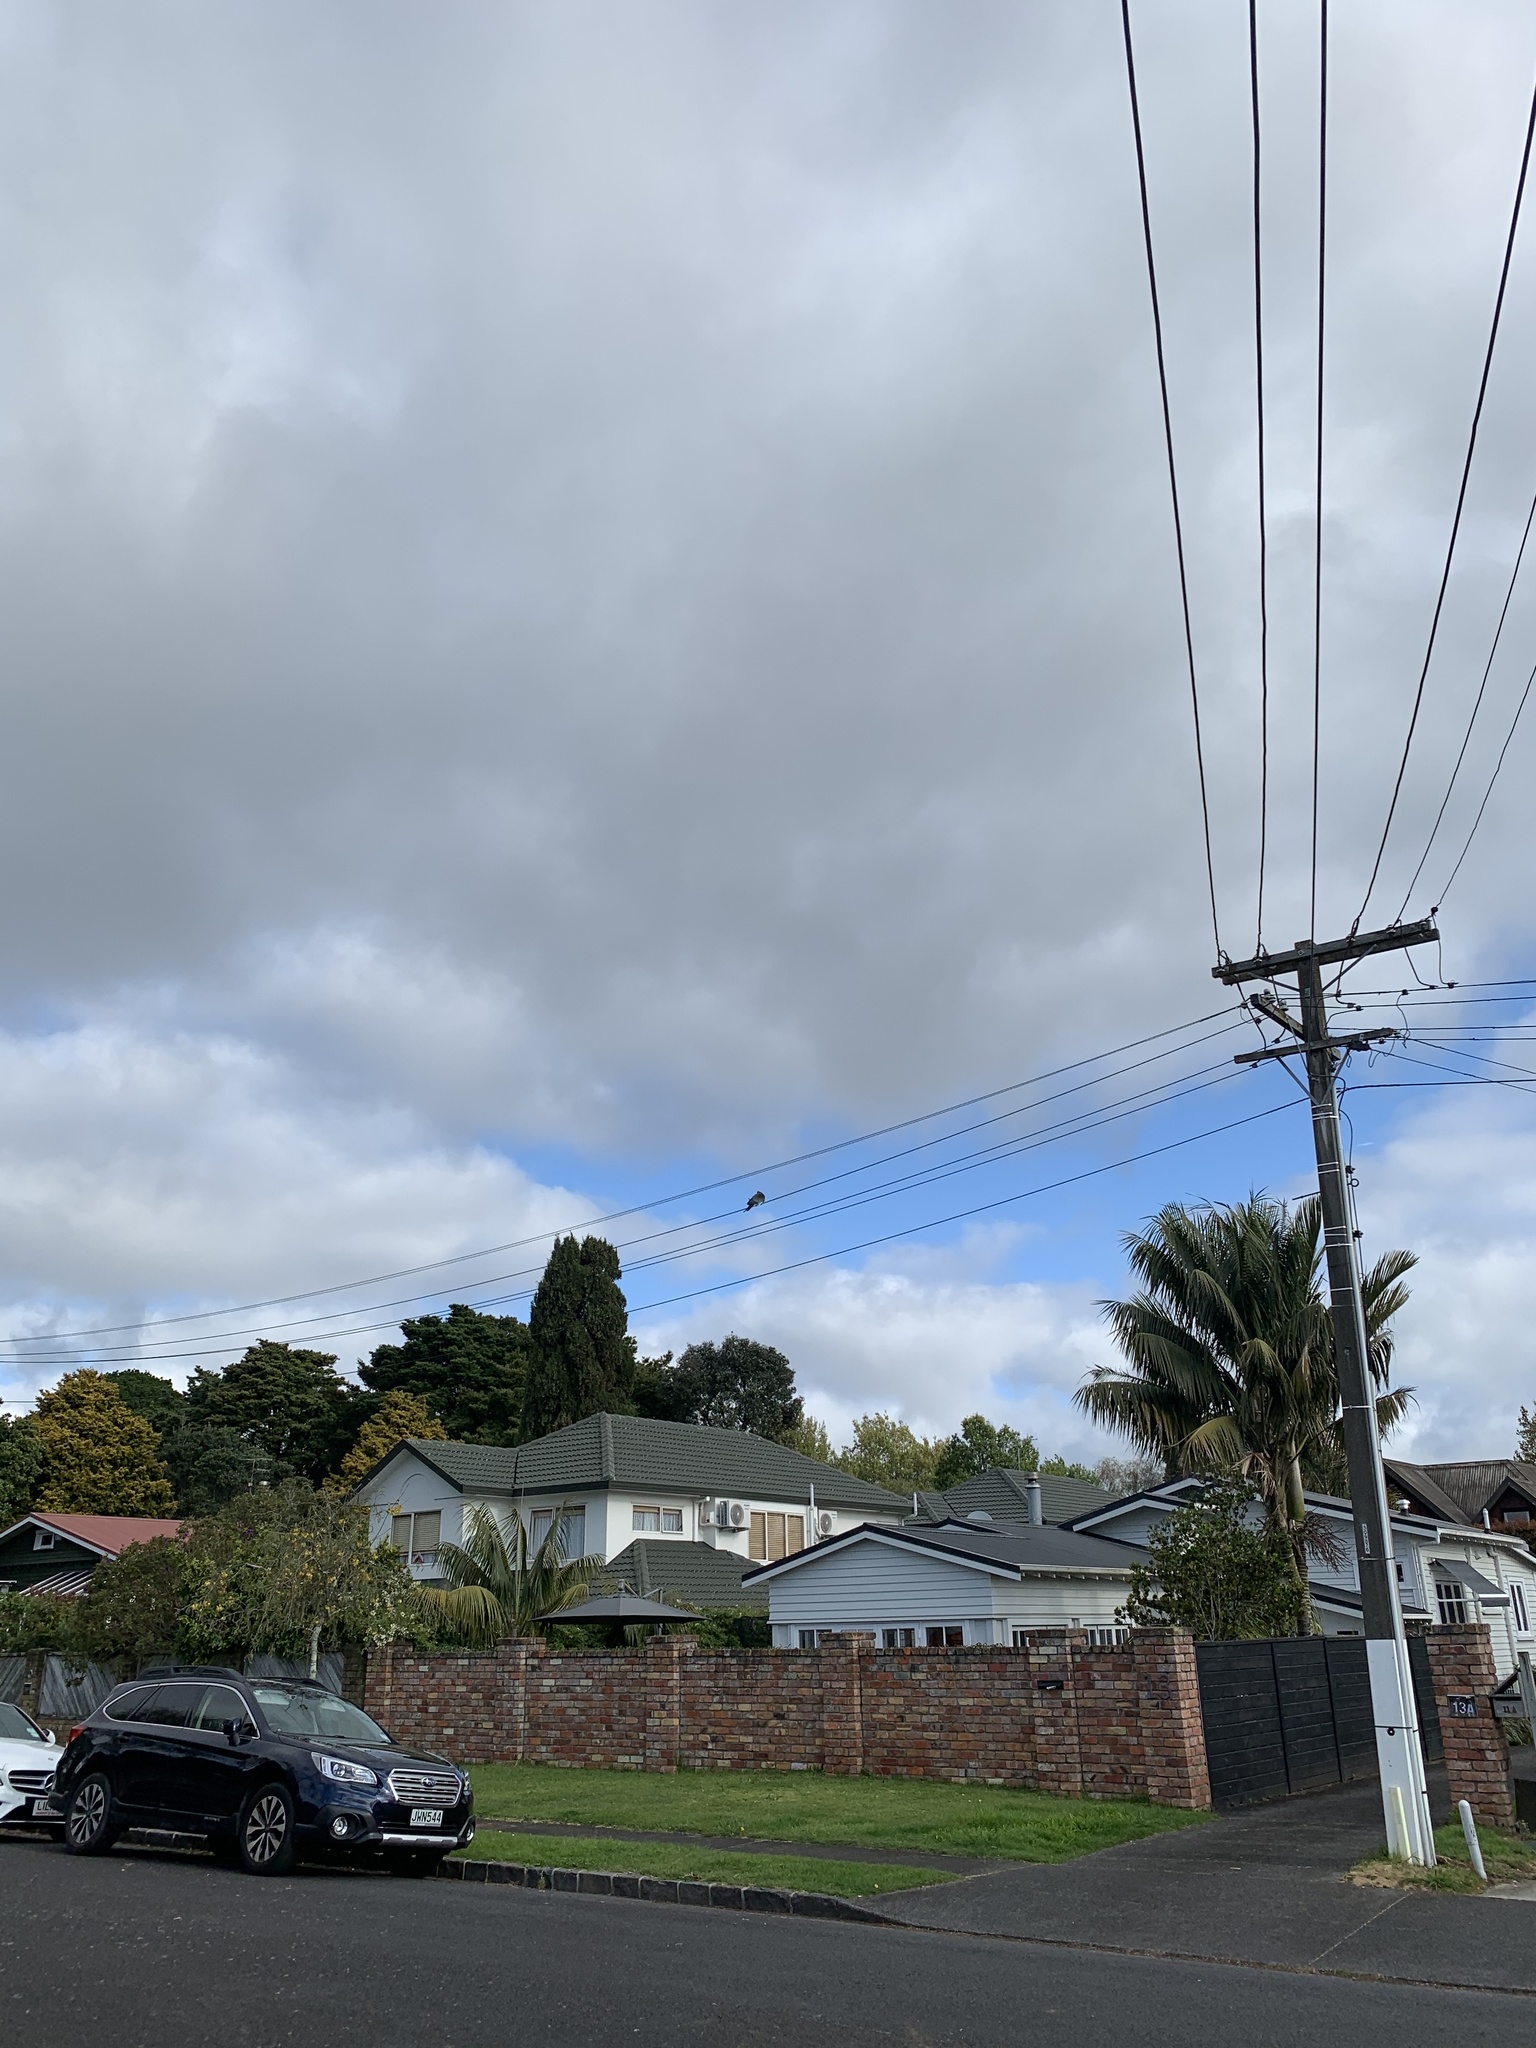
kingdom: Animalia
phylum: Chordata
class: Aves
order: Columbiformes
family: Columbidae
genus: Hemiphaga
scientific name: Hemiphaga novaeseelandiae
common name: New zealand pigeon
